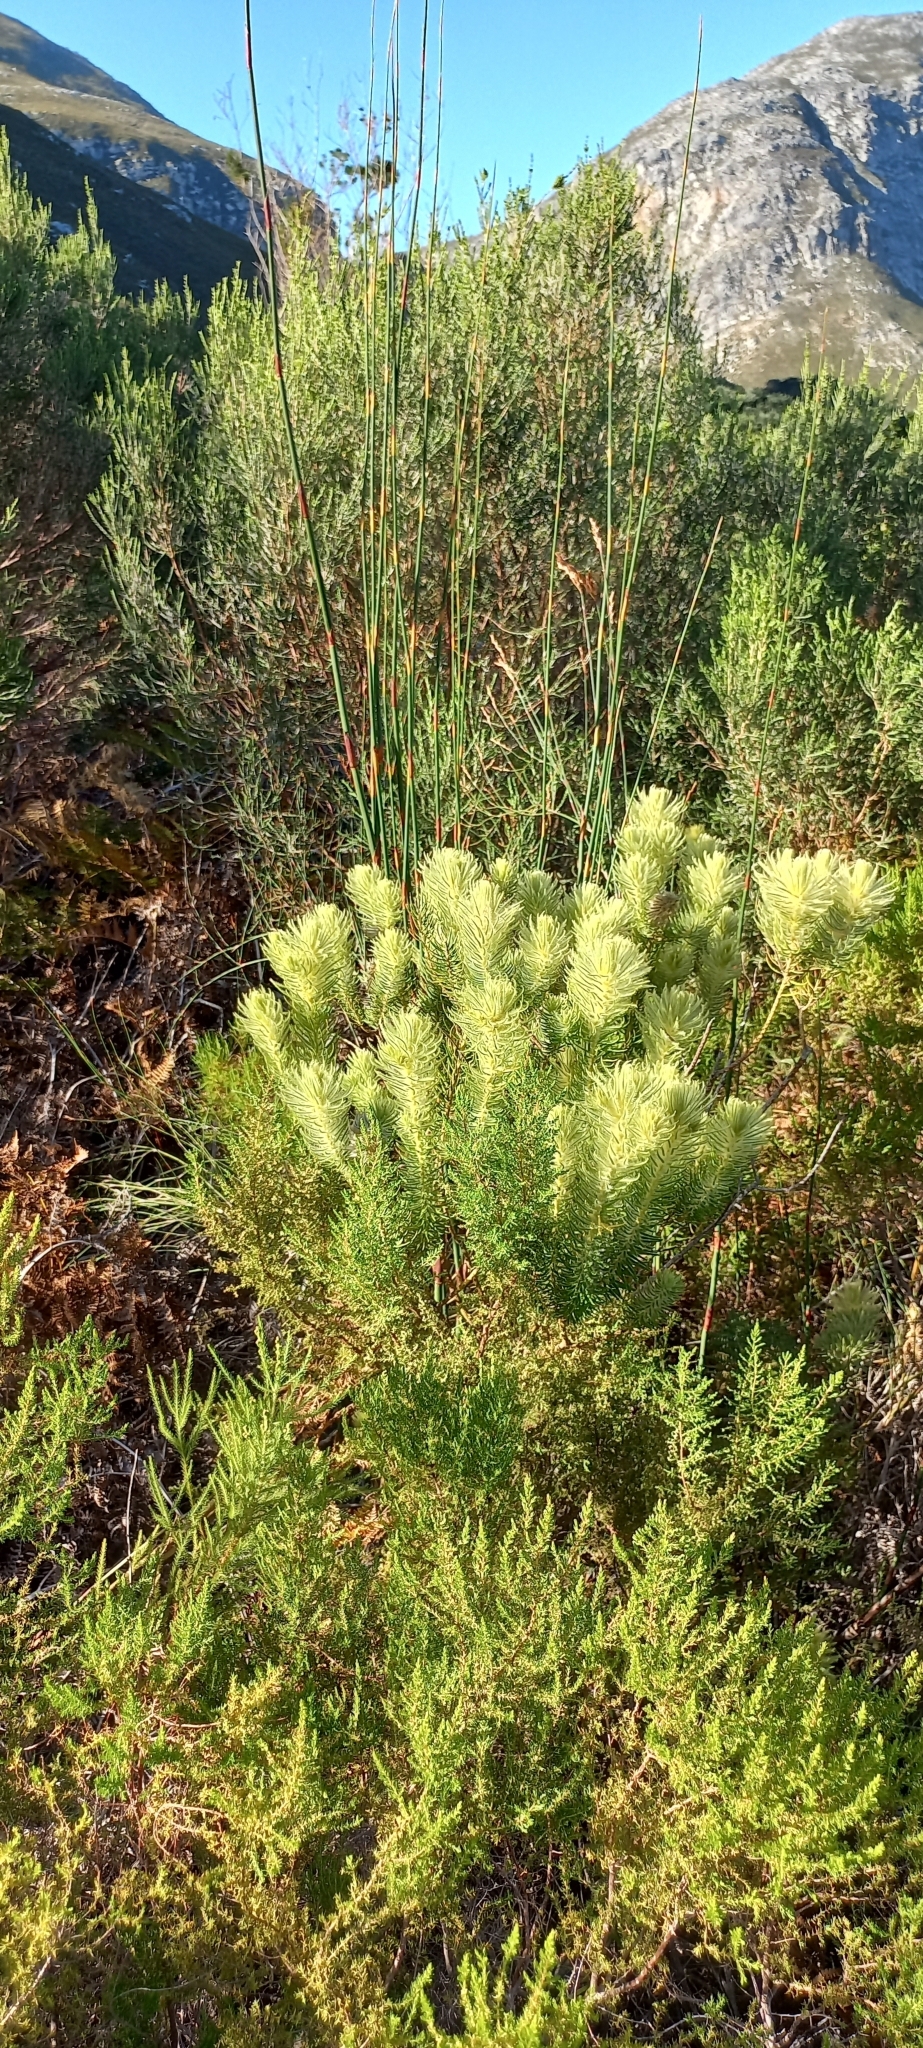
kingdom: Plantae
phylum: Tracheophyta
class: Magnoliopsida
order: Rosales
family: Rhamnaceae
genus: Phylica
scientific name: Phylica pubescens
